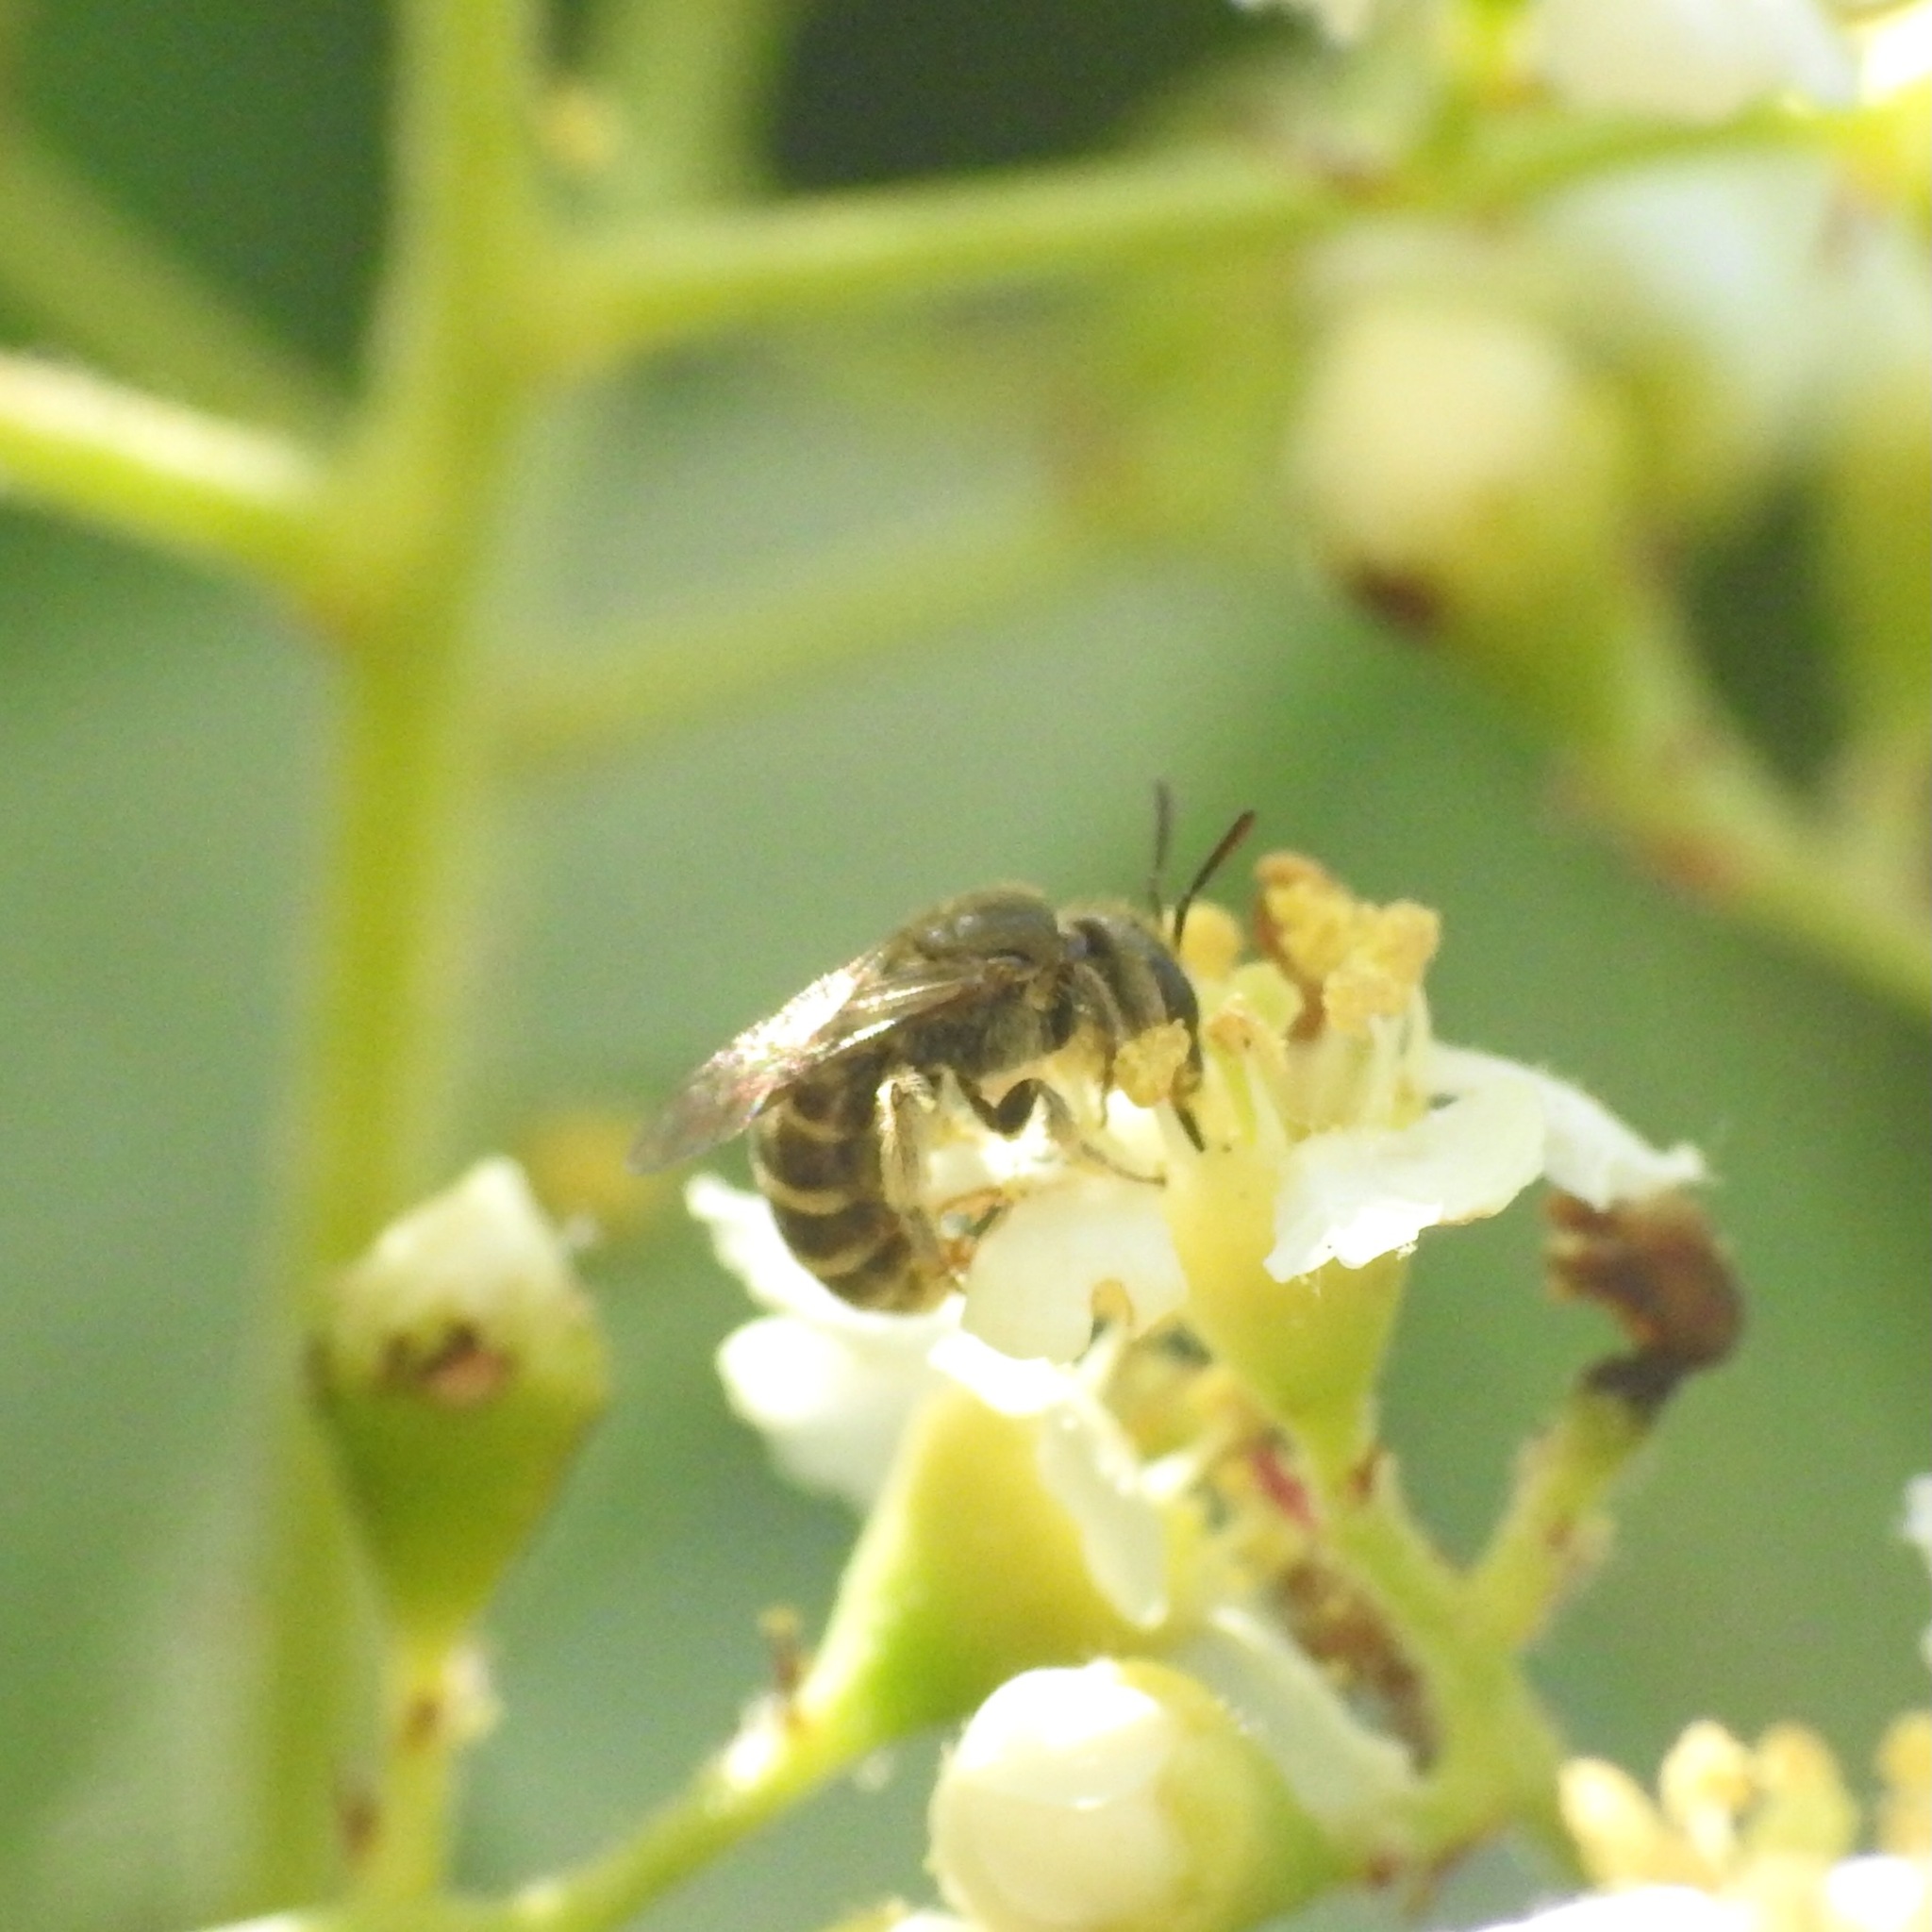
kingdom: Animalia
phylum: Arthropoda
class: Insecta
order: Hymenoptera
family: Halictidae
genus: Halictus
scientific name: Halictus tripartitus
